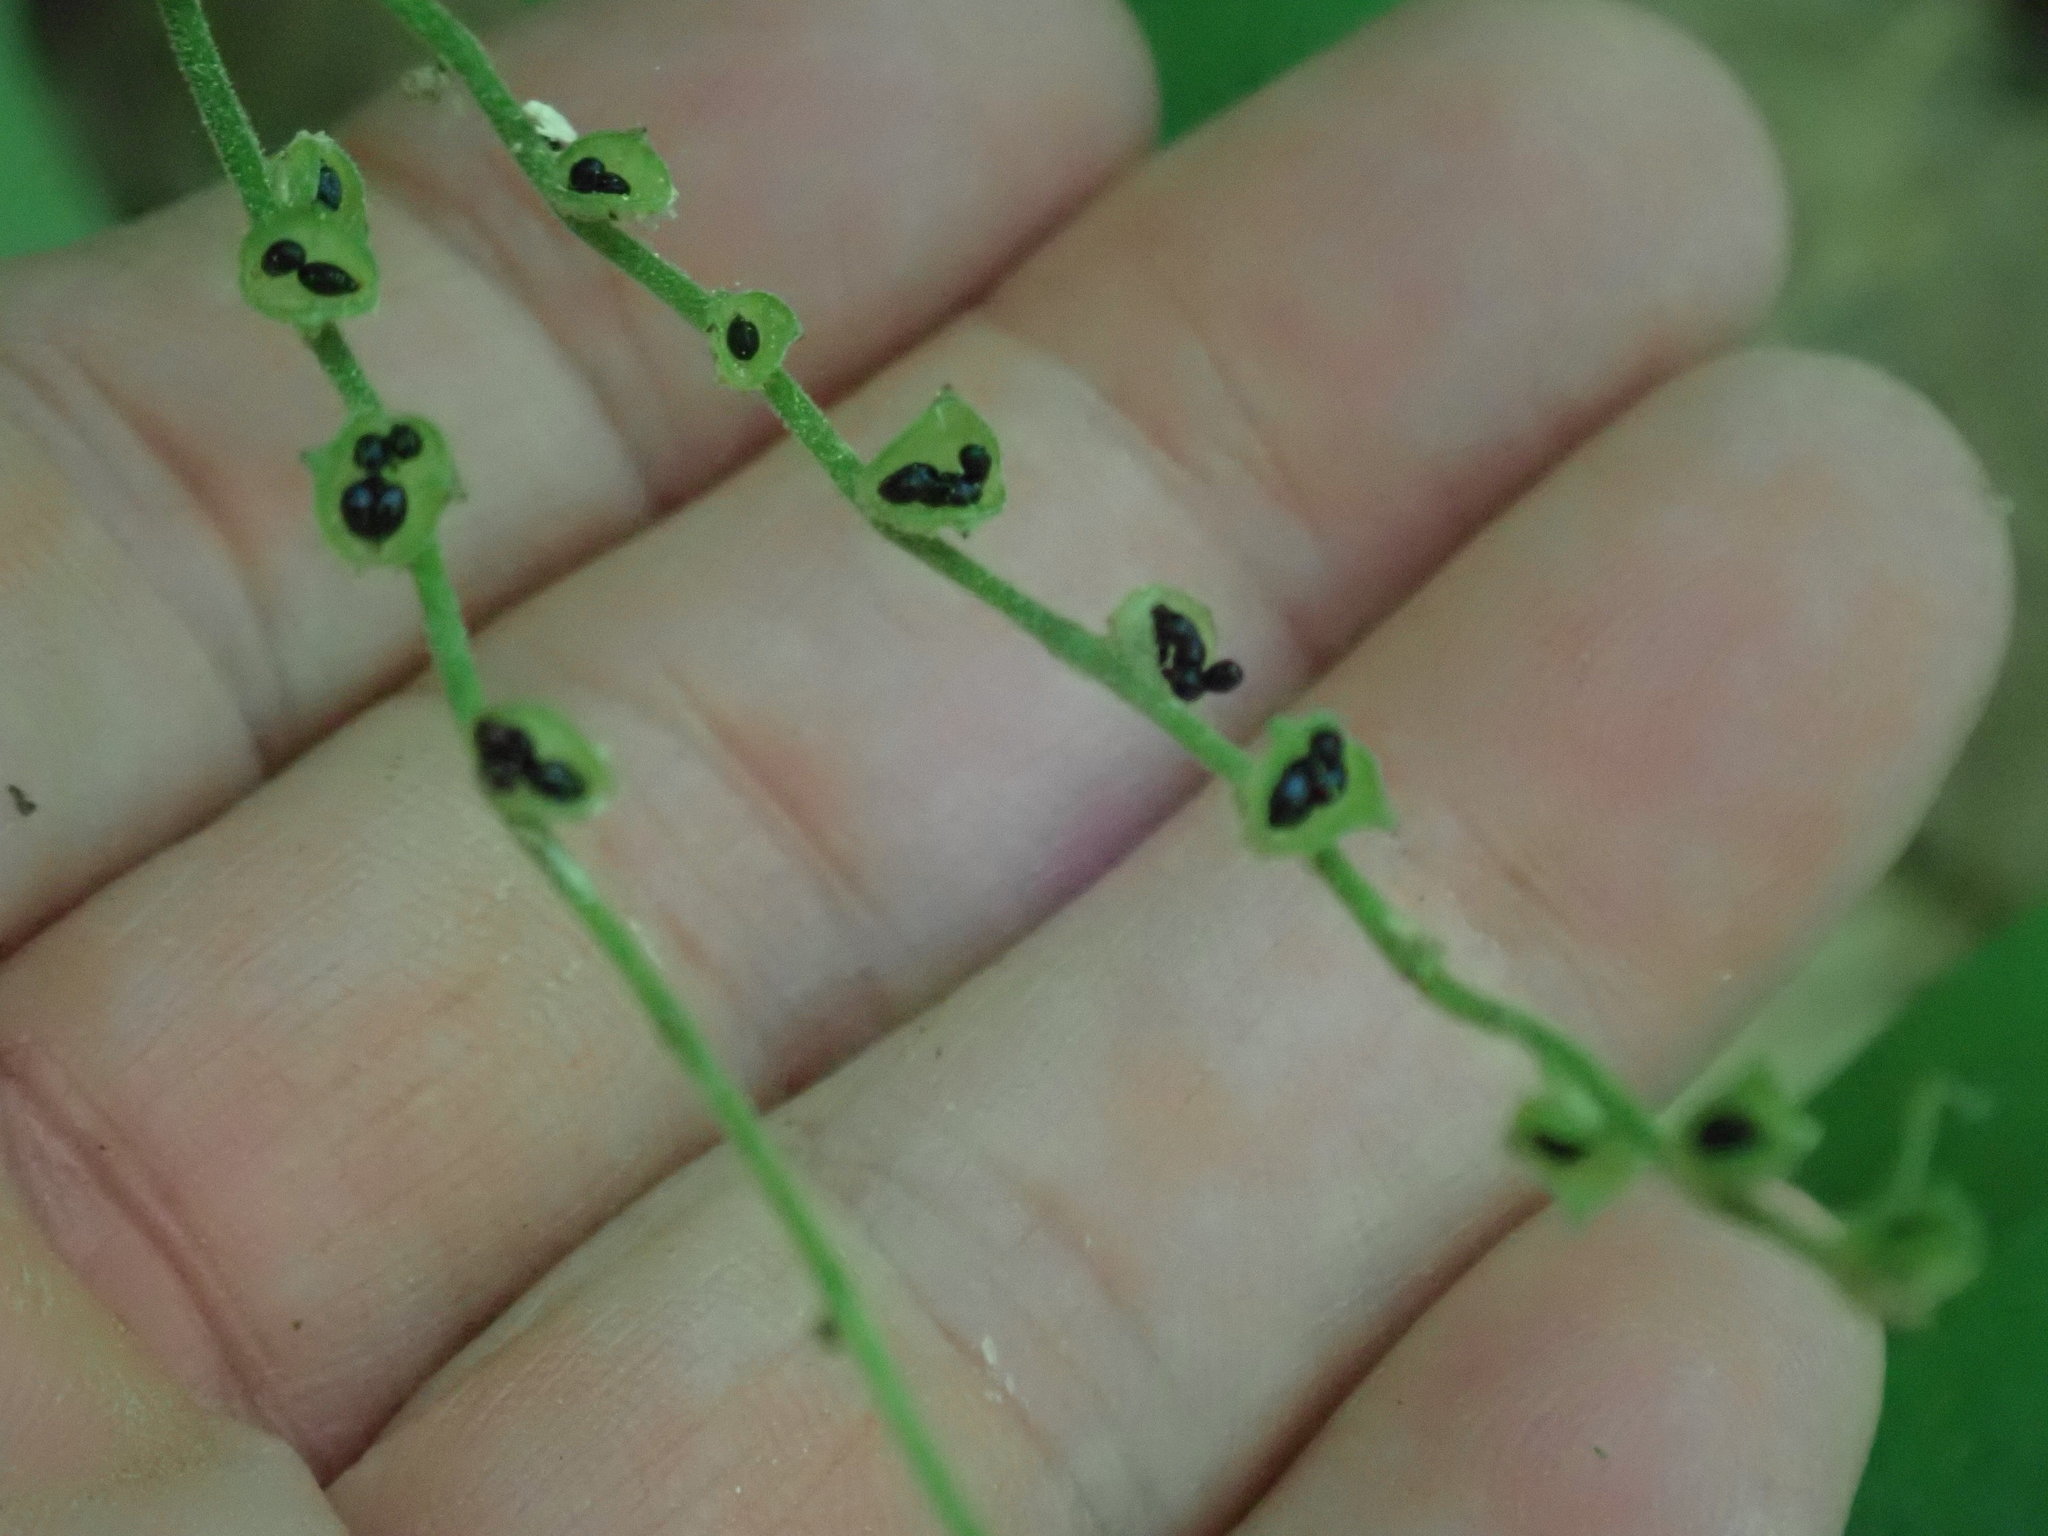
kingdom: Plantae
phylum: Tracheophyta
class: Magnoliopsida
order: Saxifragales
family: Saxifragaceae
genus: Mitella
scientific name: Mitella diphylla
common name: Coolwort
